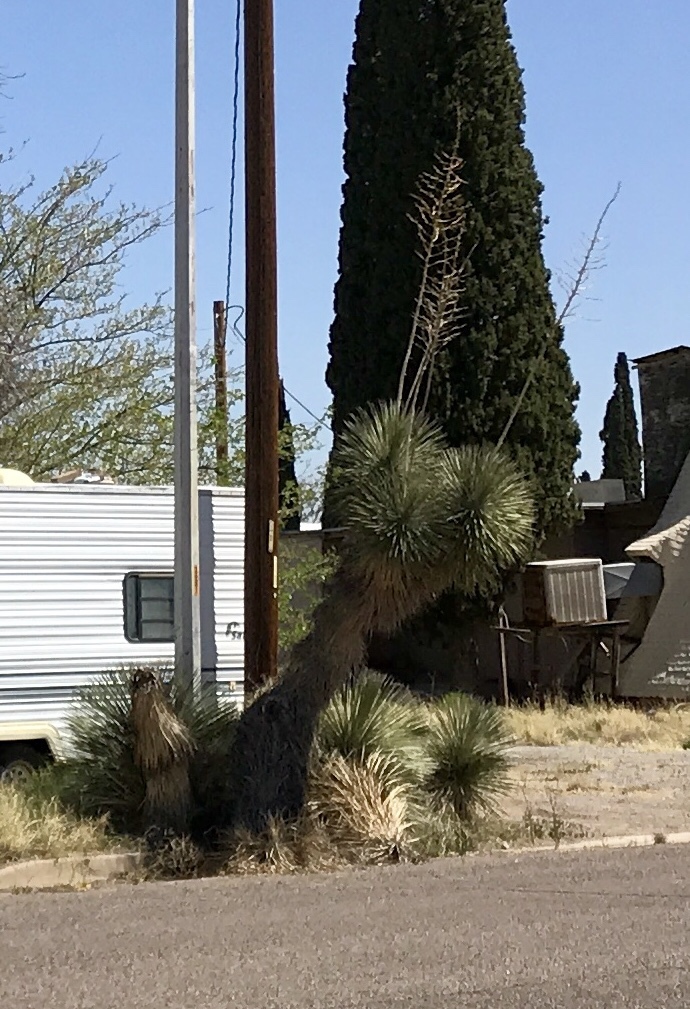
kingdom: Plantae
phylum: Tracheophyta
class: Liliopsida
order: Asparagales
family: Asparagaceae
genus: Yucca
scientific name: Yucca elata
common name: Palmella
